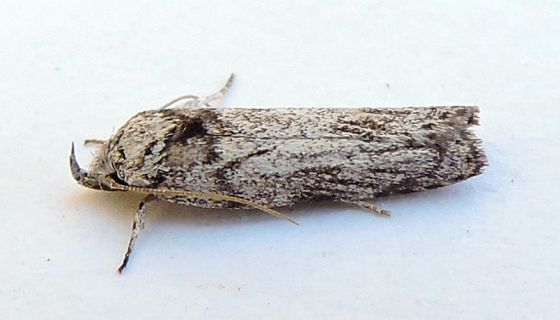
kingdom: Animalia
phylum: Arthropoda
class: Insecta
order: Lepidoptera
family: Depressariidae
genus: Menestomorpha
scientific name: Menestomorpha oblongata
